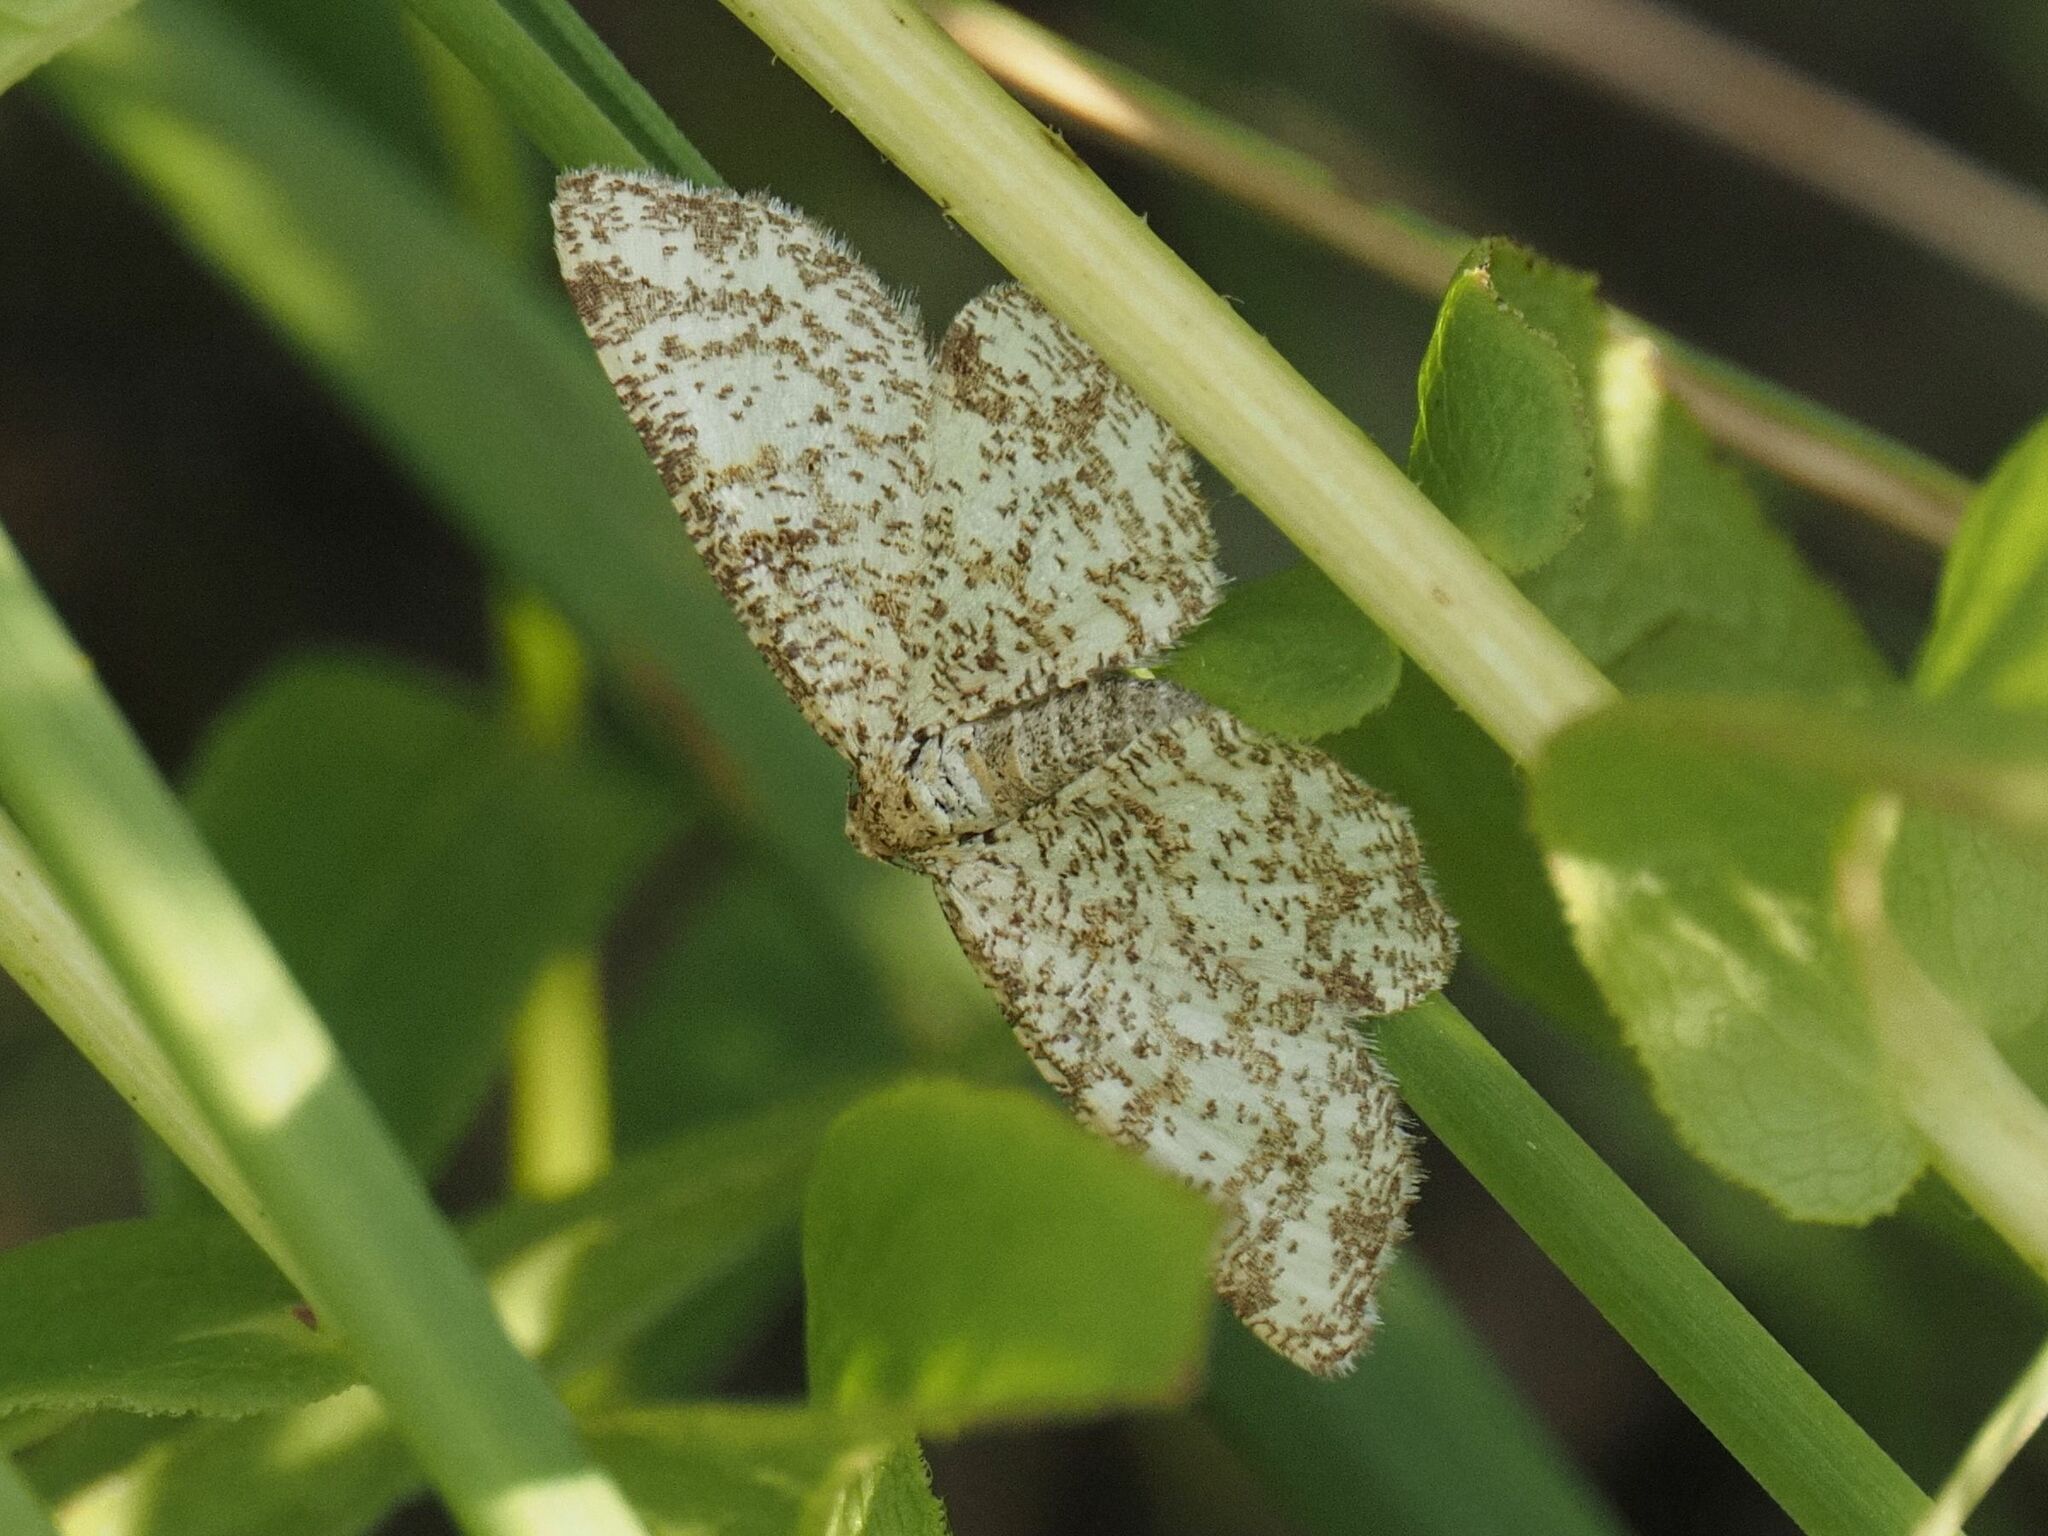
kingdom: Animalia
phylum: Arthropoda
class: Insecta
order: Lepidoptera
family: Geometridae
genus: Heliomata
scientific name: Heliomata glarearia
